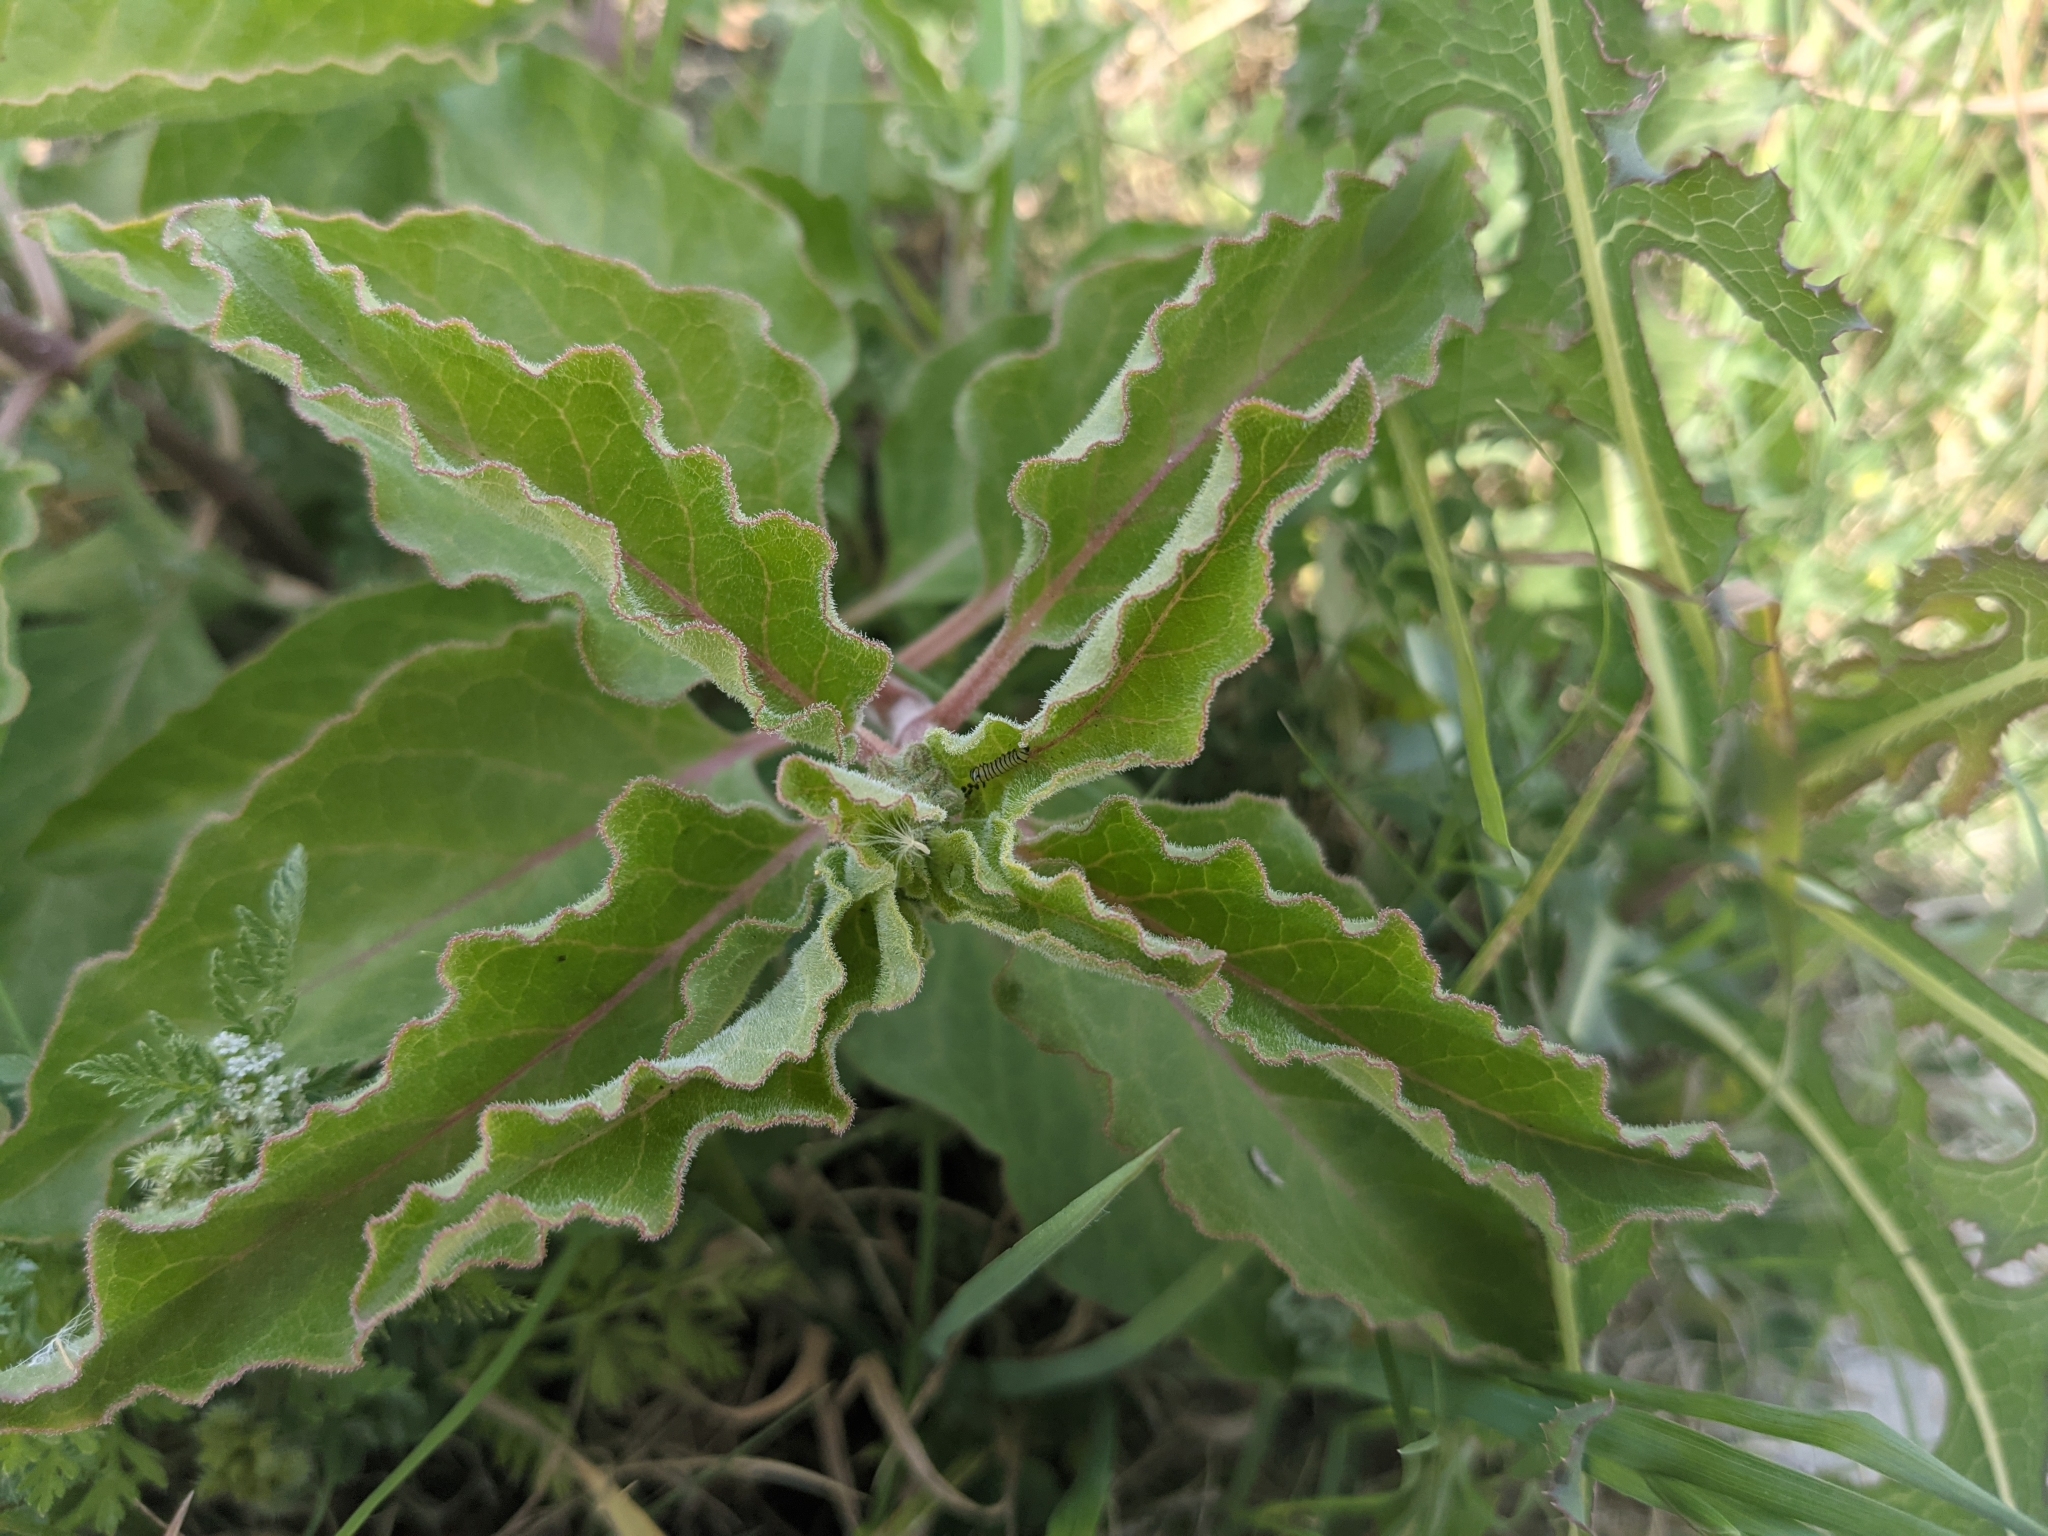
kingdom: Animalia
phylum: Arthropoda
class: Insecta
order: Lepidoptera
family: Nymphalidae
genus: Danaus
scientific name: Danaus plexippus
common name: Monarch
